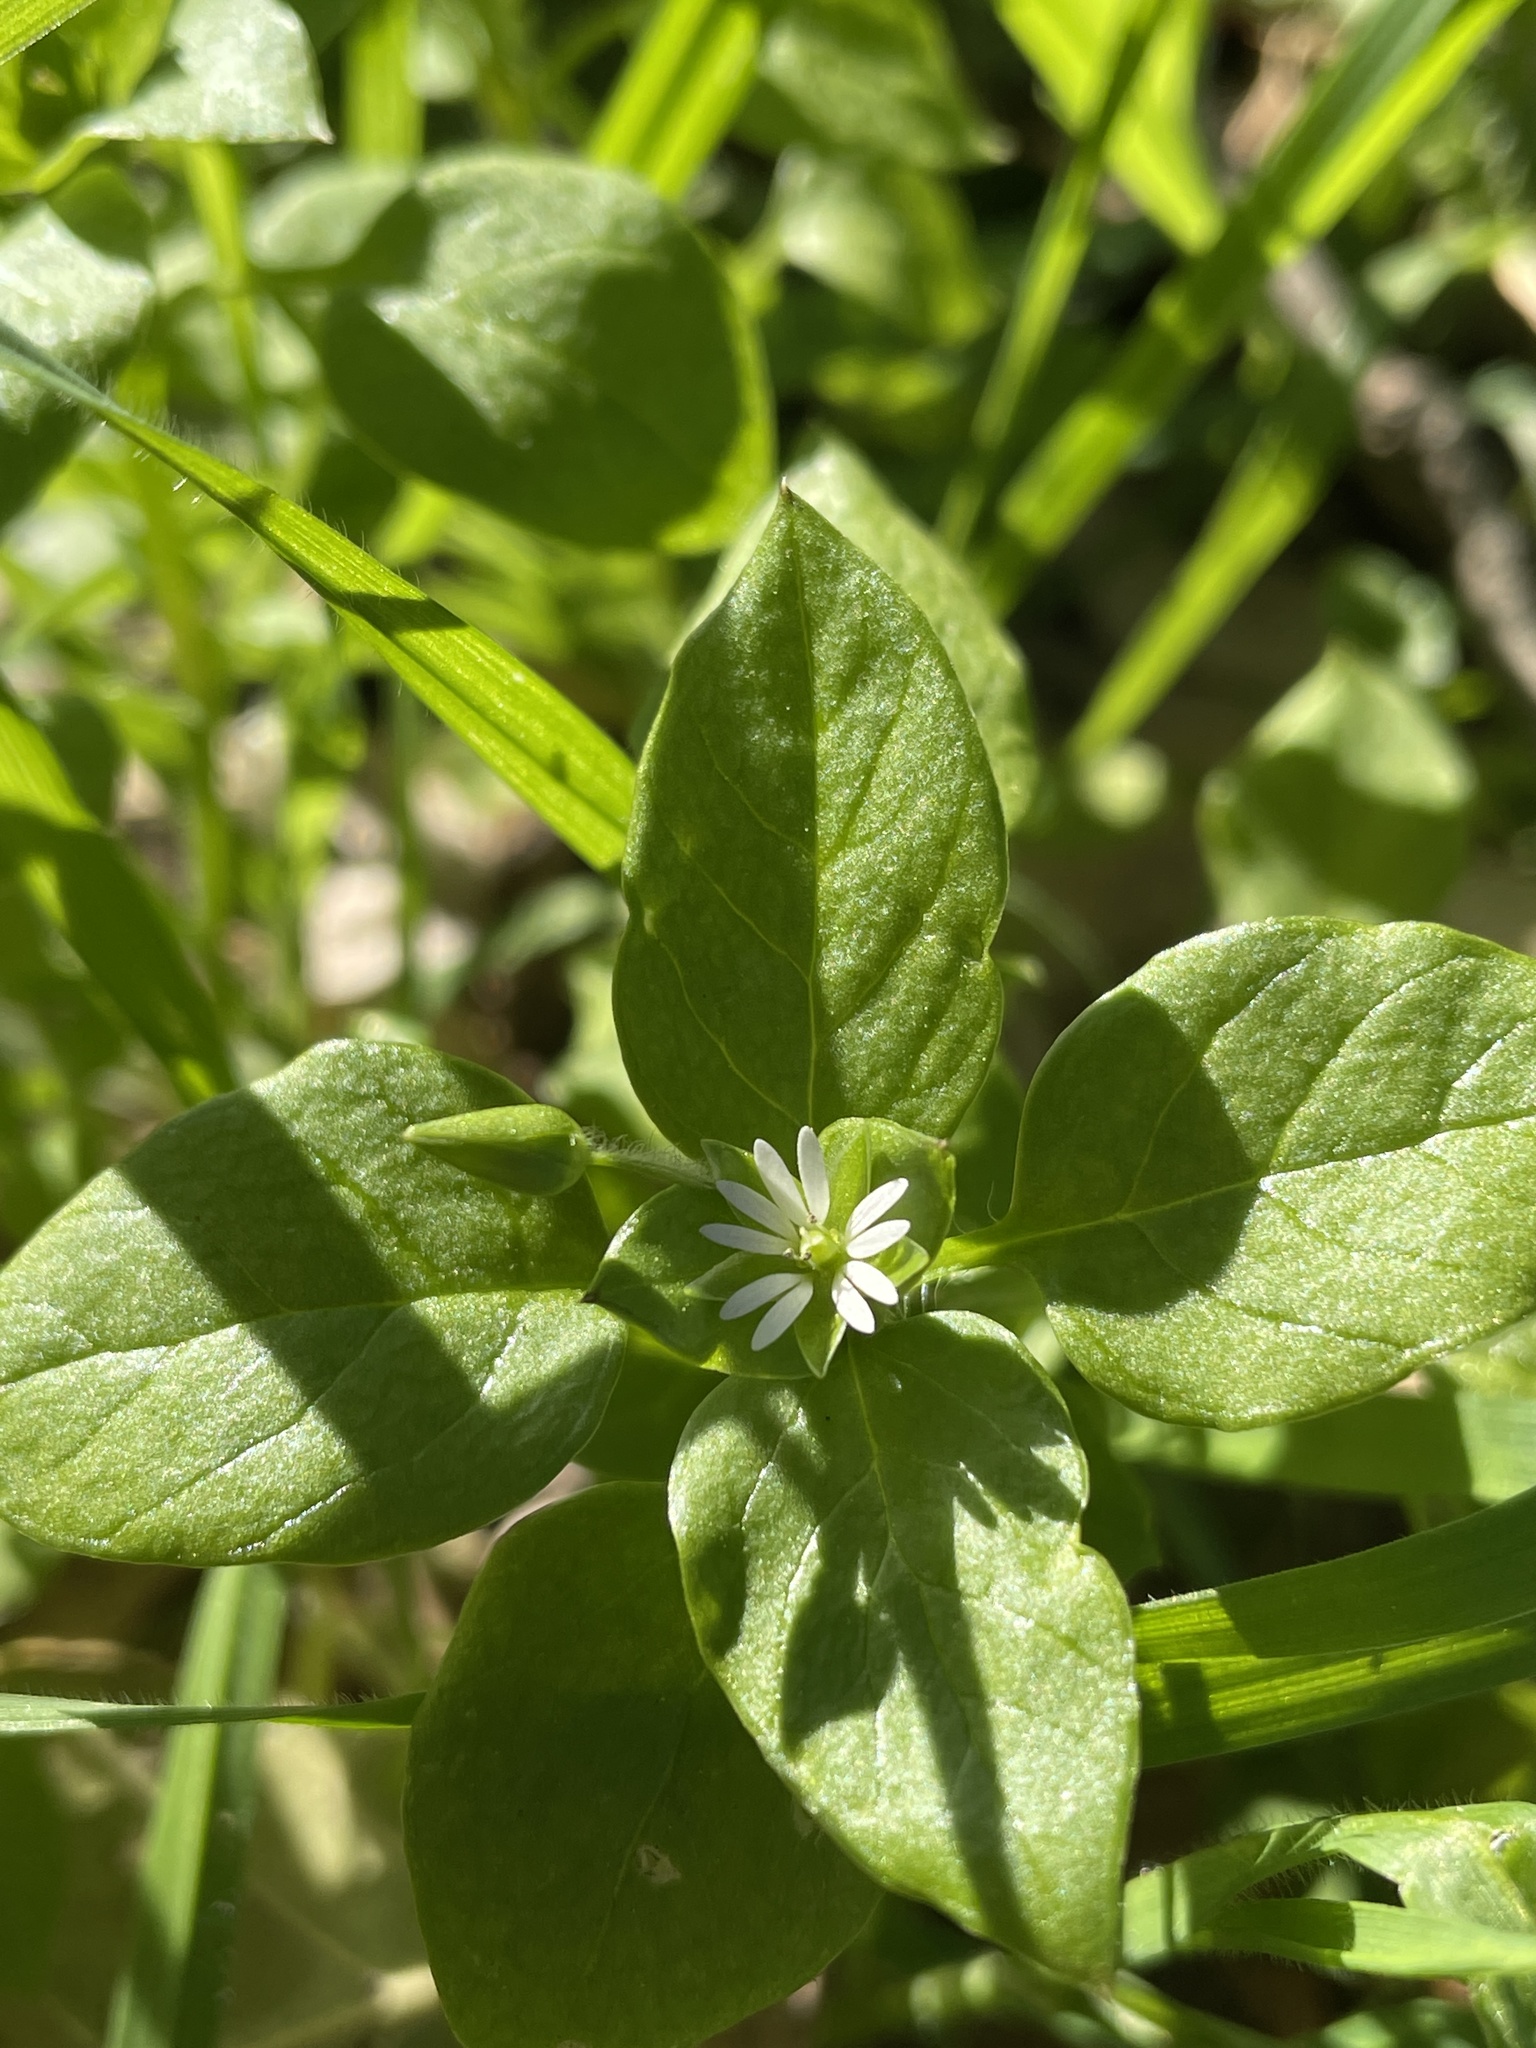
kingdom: Plantae
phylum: Tracheophyta
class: Magnoliopsida
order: Caryophyllales
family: Caryophyllaceae
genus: Stellaria
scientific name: Stellaria media
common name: Common chickweed
